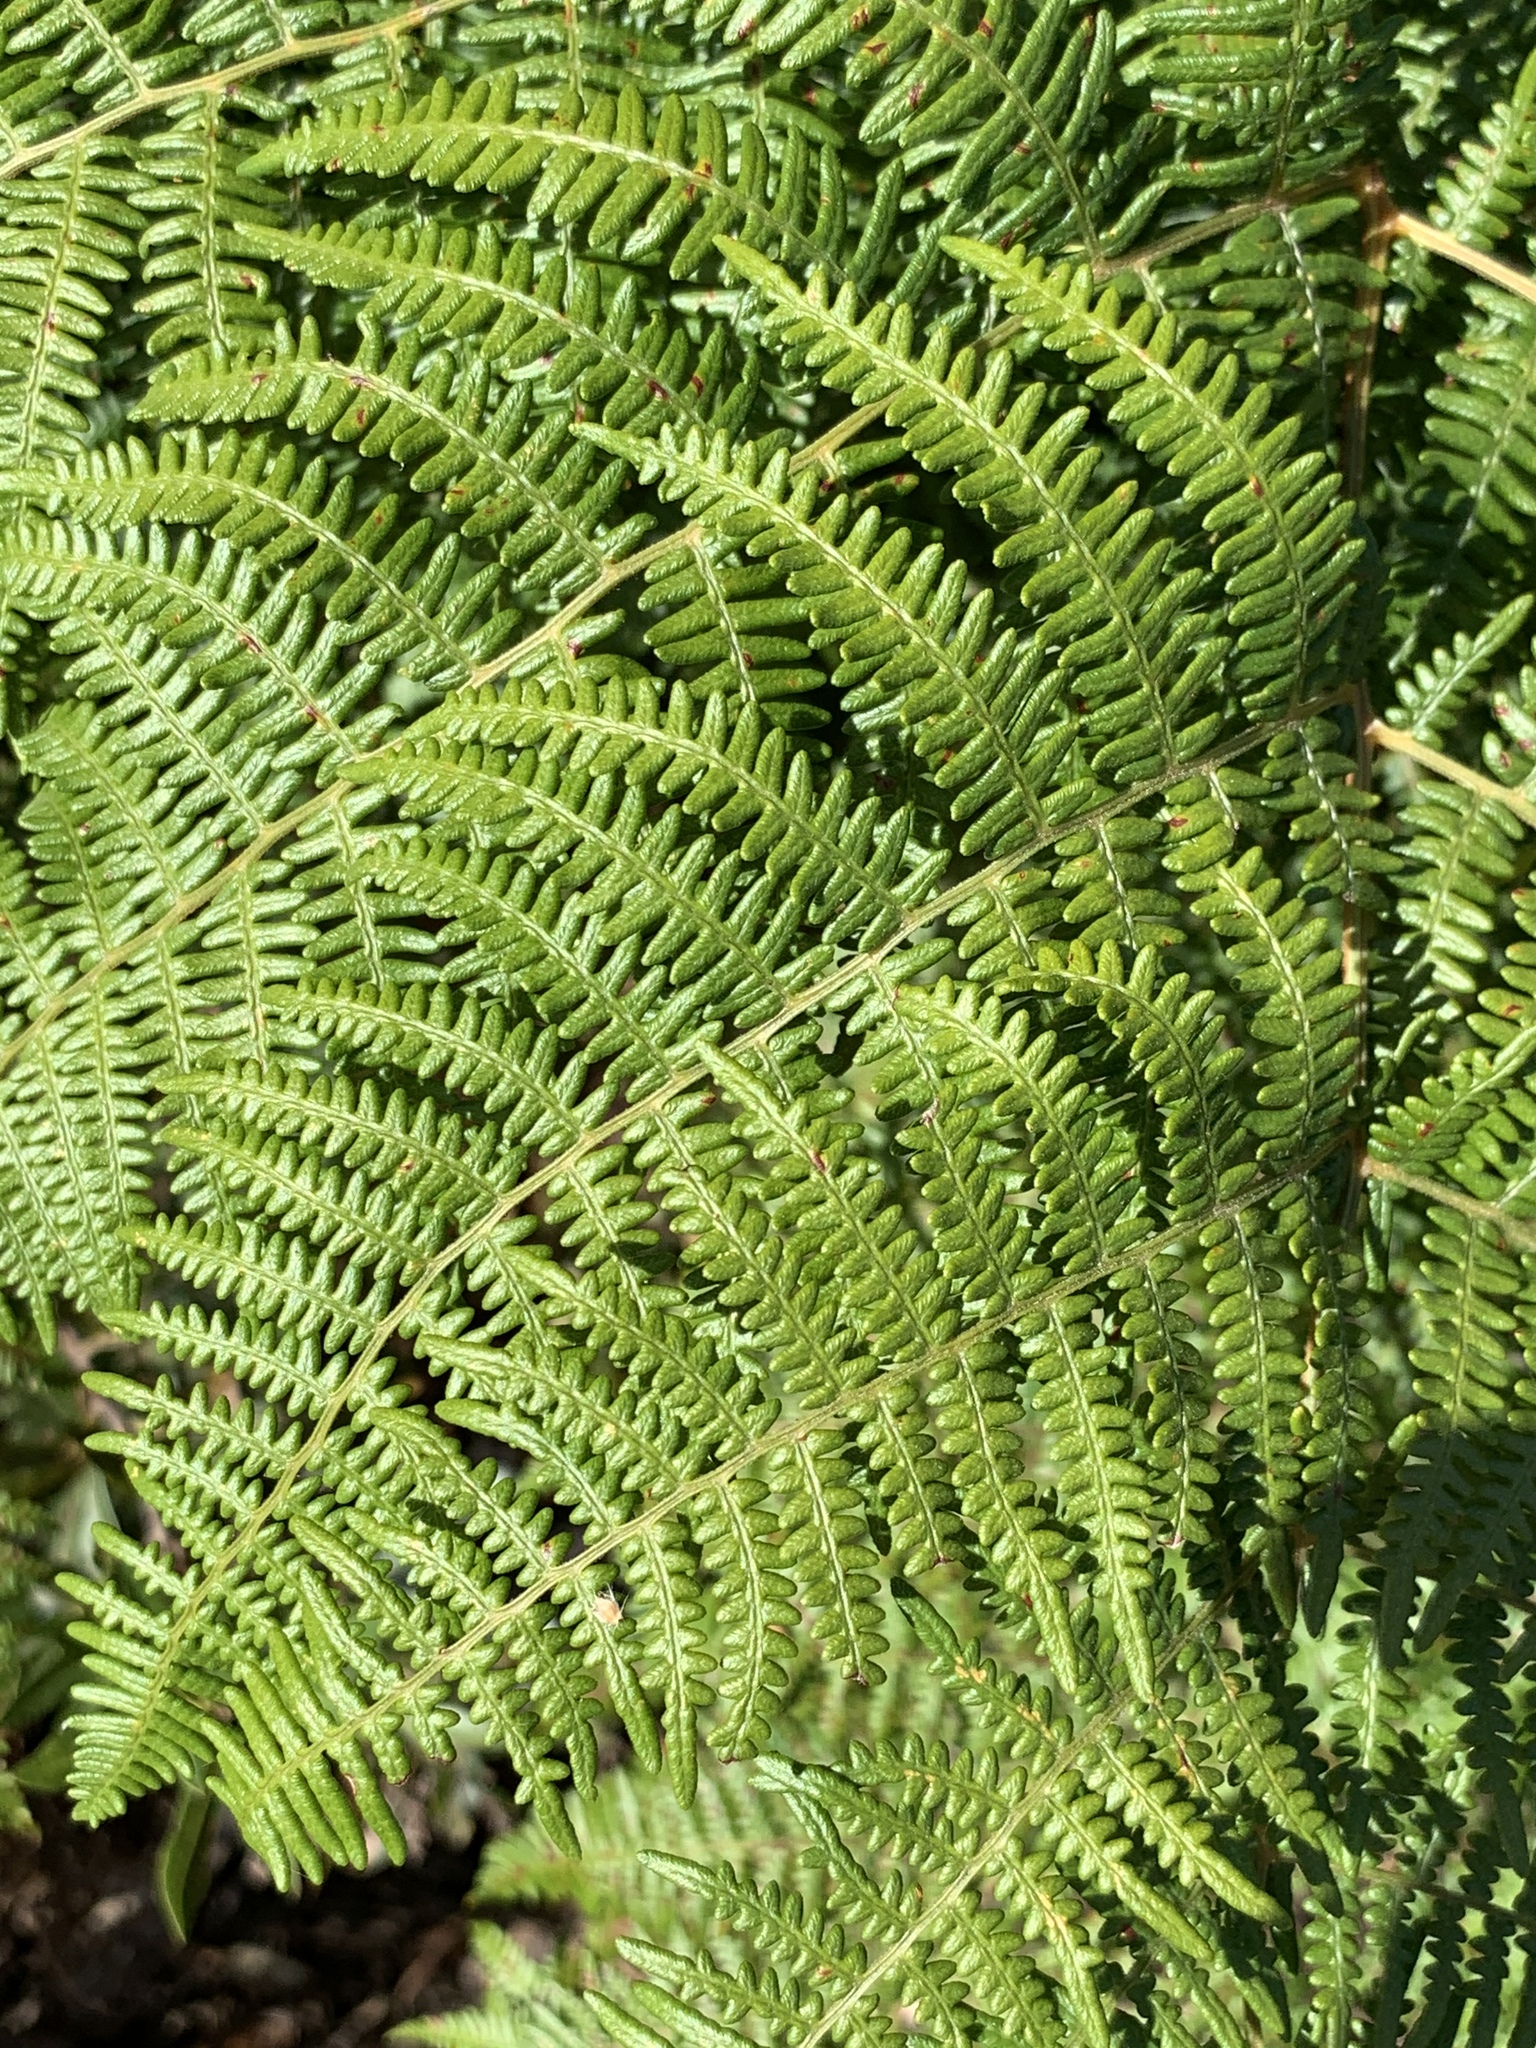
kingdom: Plantae
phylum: Tracheophyta
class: Polypodiopsida
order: Polypodiales
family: Dennstaedtiaceae
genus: Pteridium
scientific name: Pteridium aquilinum
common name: Bracken
